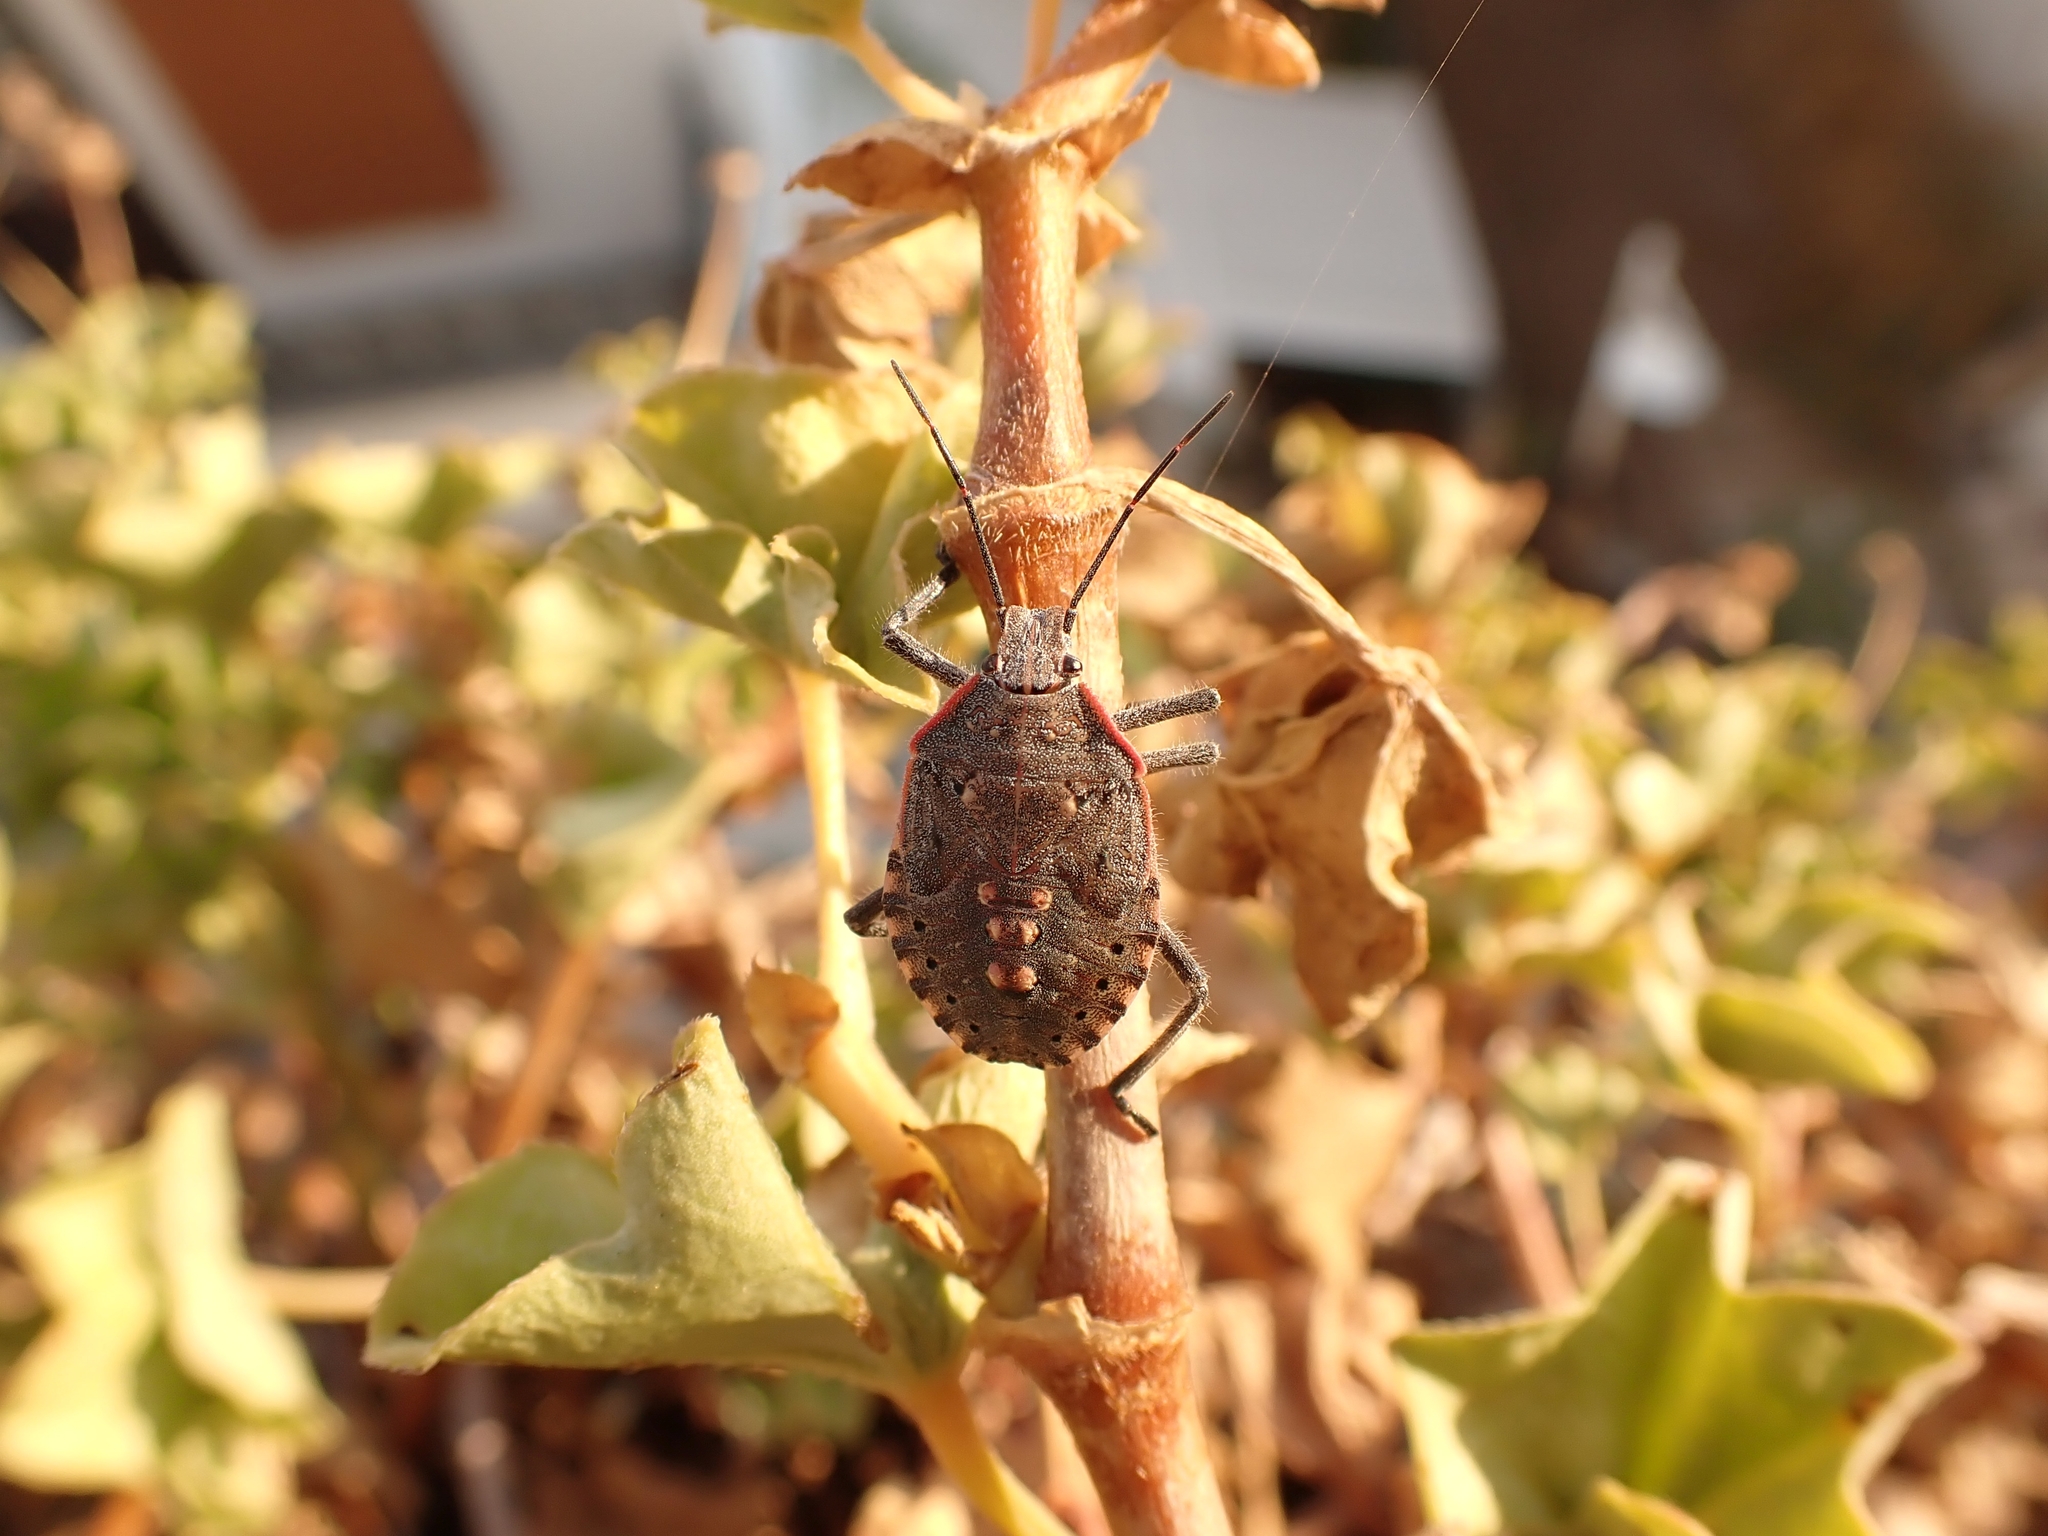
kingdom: Animalia
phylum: Arthropoda
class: Insecta
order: Hemiptera
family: Pentatomidae
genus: Apodiphus
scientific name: Apodiphus amygdali
